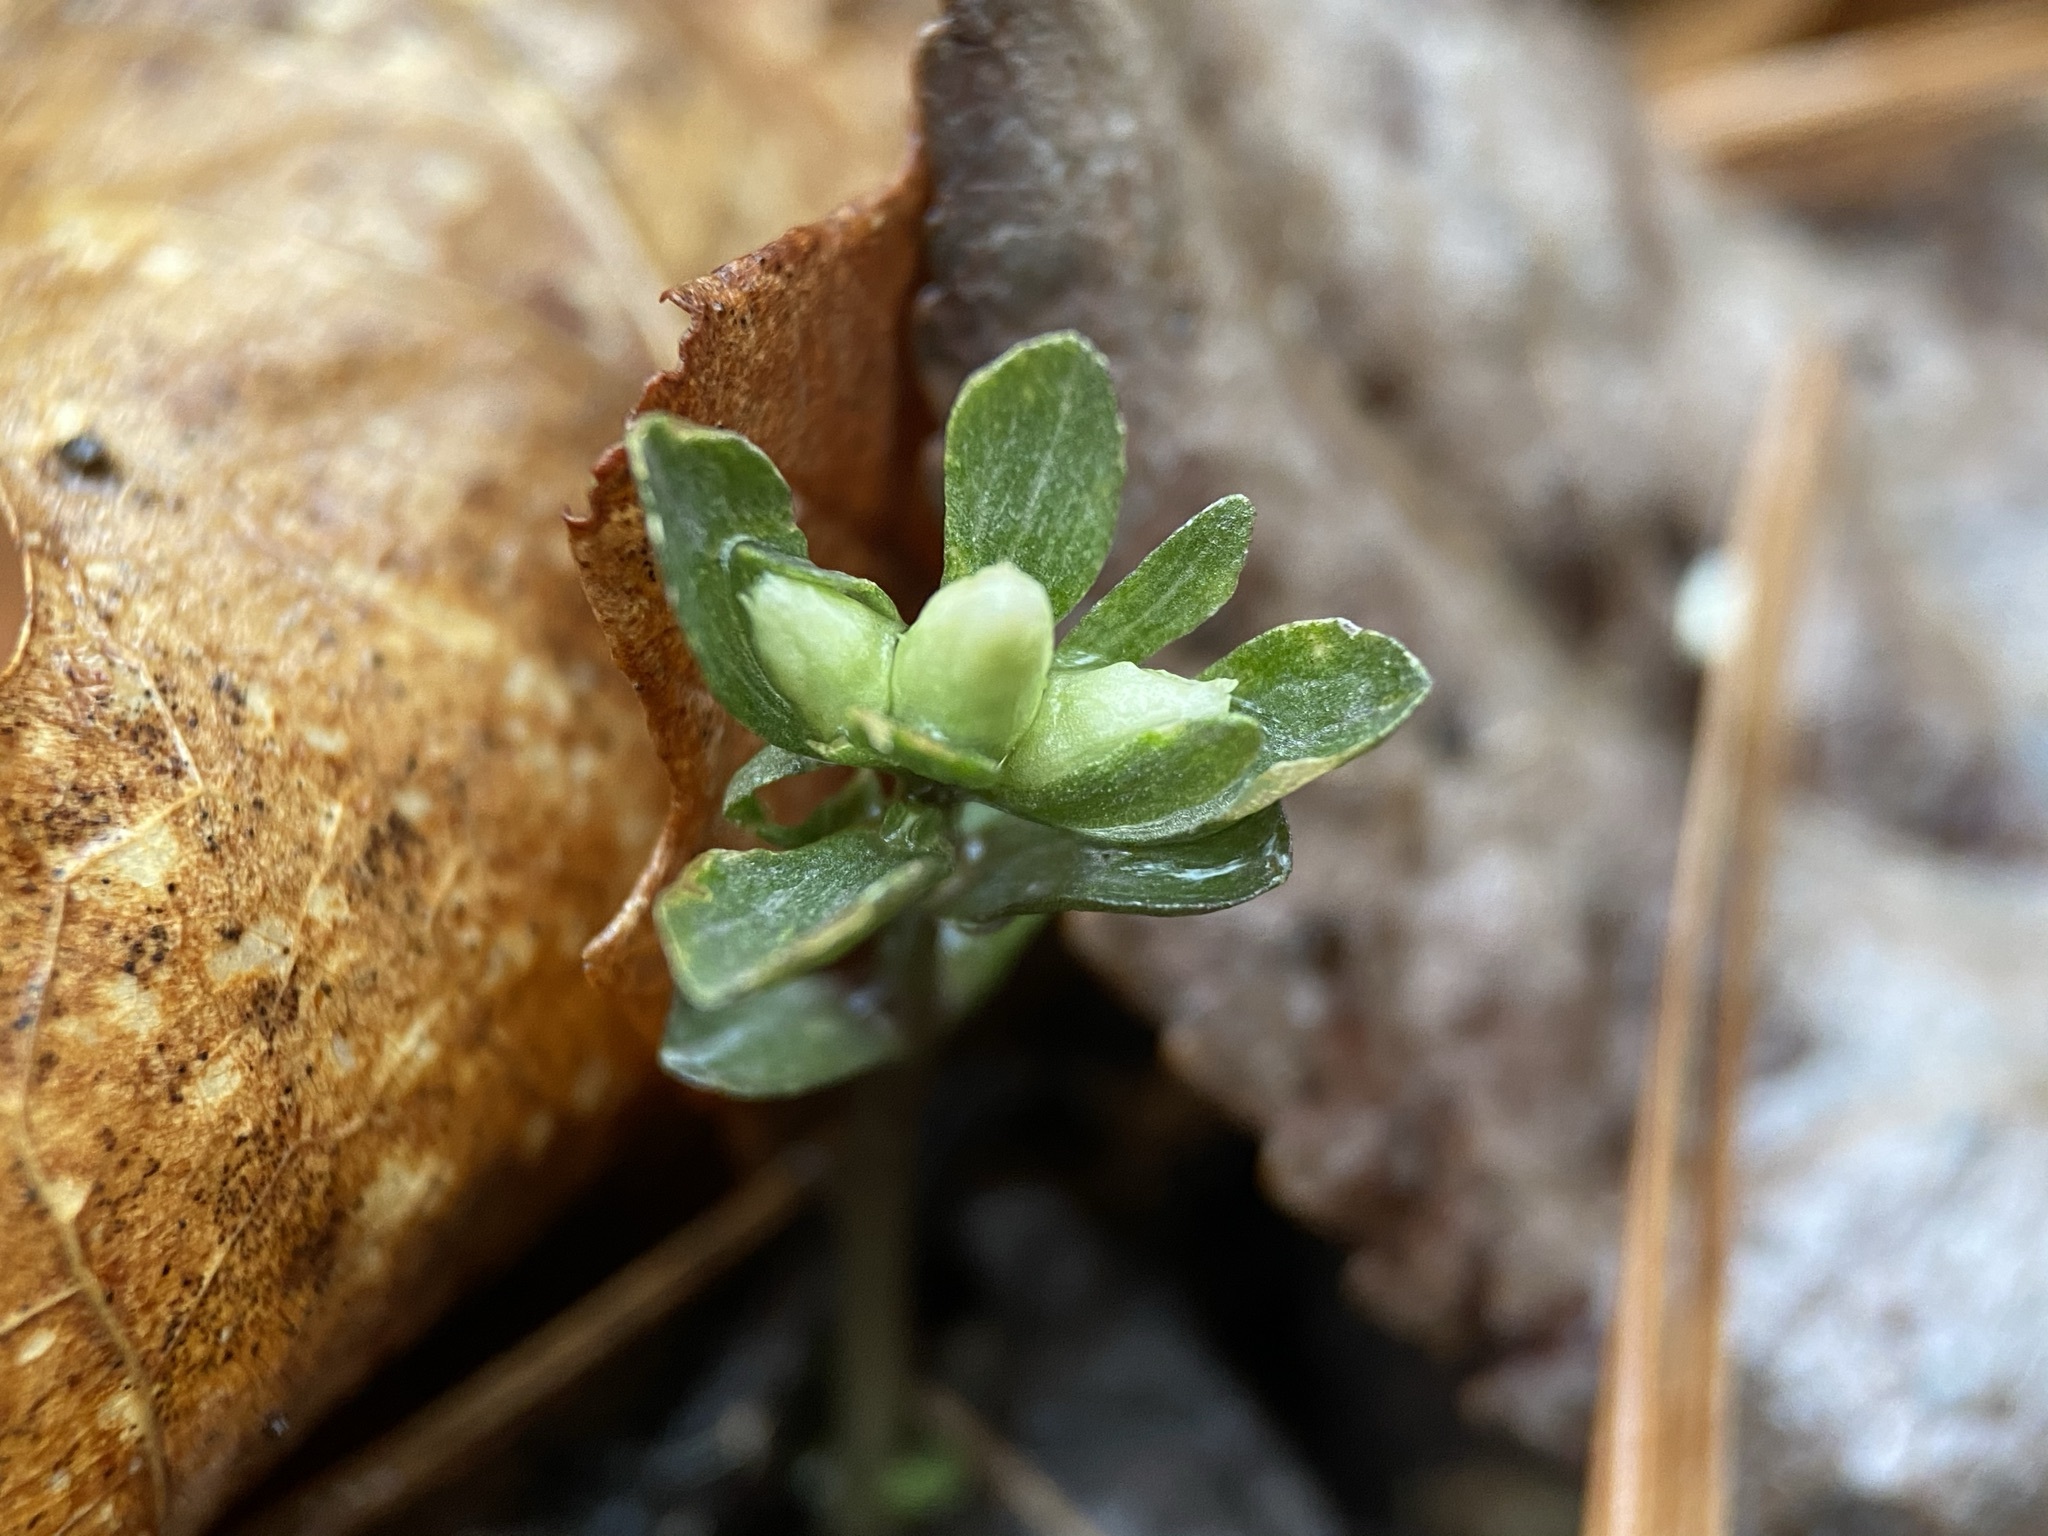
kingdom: Plantae
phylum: Tracheophyta
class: Magnoliopsida
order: Gentianales
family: Gentianaceae
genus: Obolaria
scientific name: Obolaria virginica
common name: Pennywort
